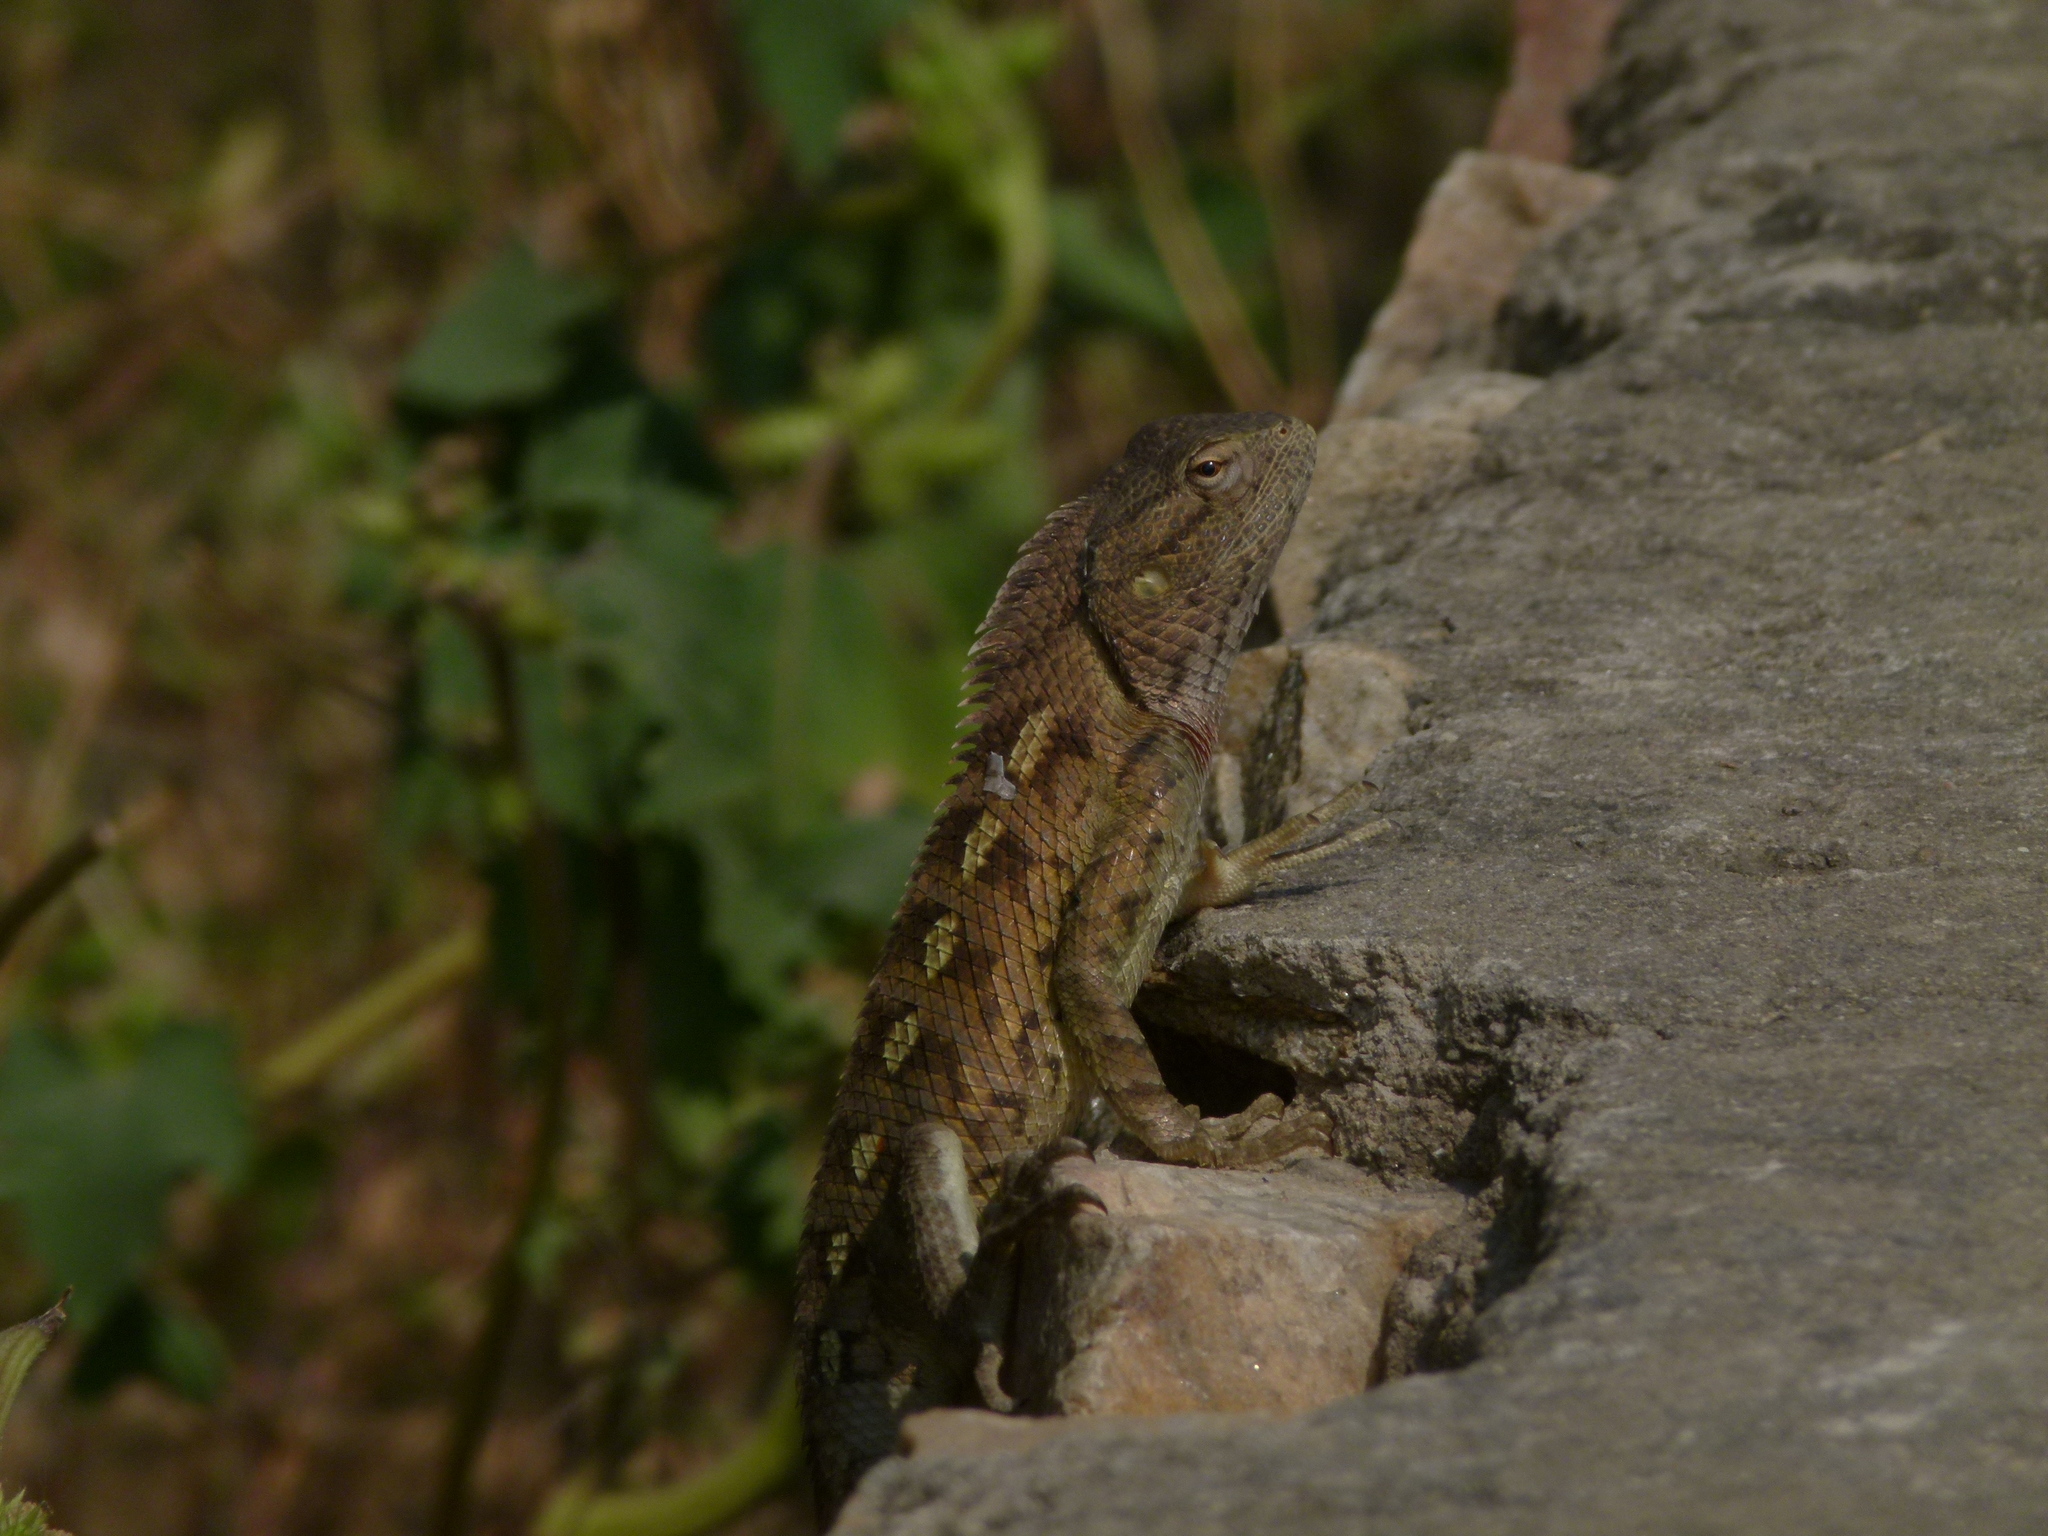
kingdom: Animalia
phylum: Chordata
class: Squamata
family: Agamidae
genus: Calotes
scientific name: Calotes versicolor
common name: Oriental garden lizard
